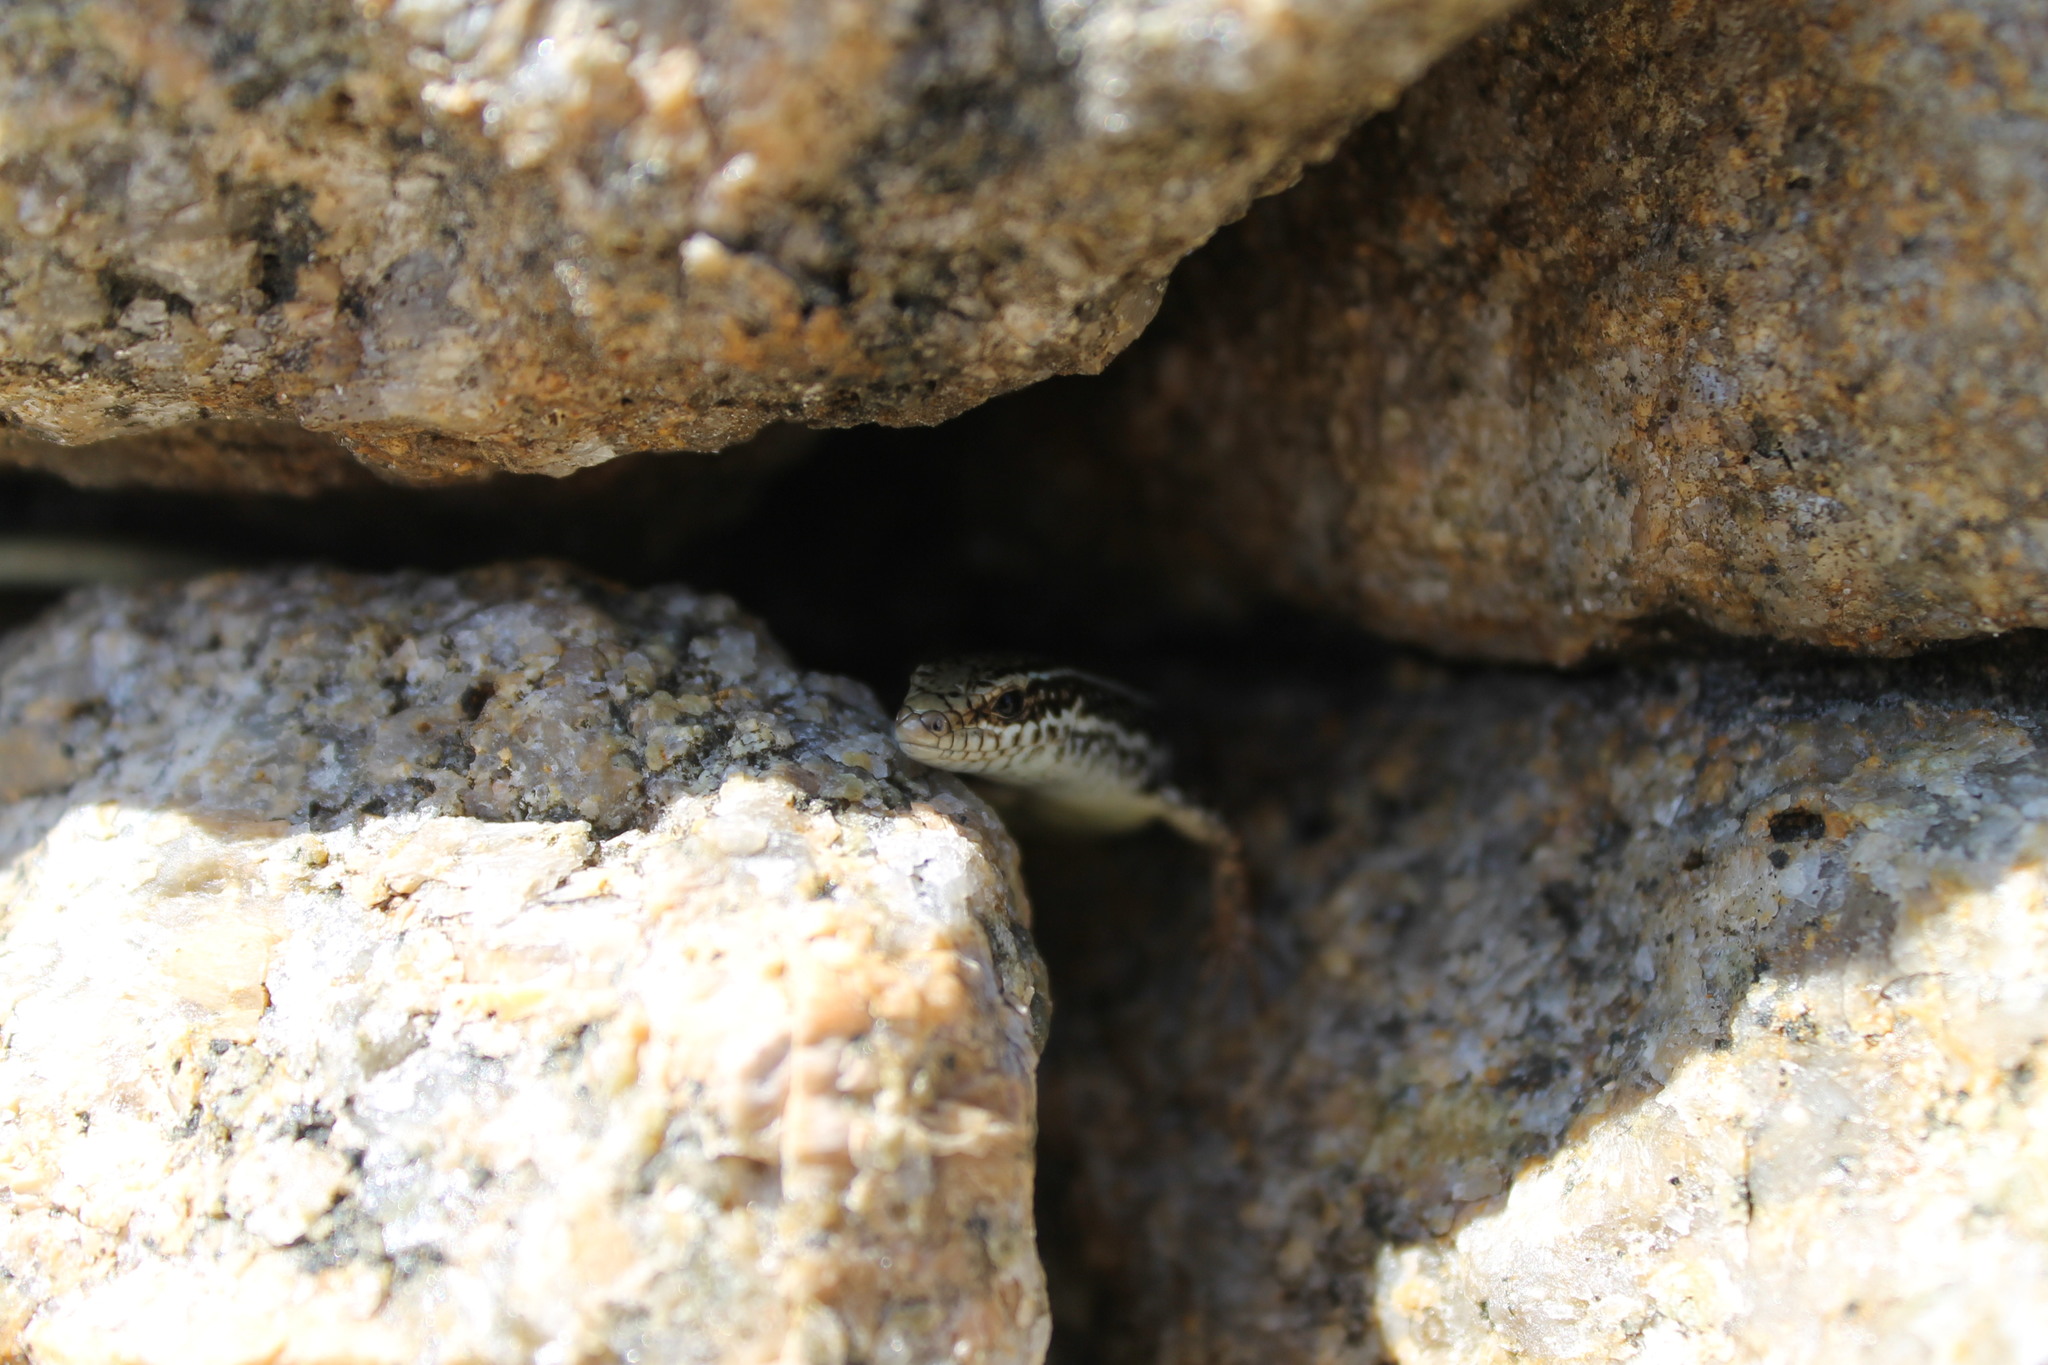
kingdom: Animalia
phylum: Chordata
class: Squamata
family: Scincidae
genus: Ctenotus
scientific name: Ctenotus labillardieri
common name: Common south-west ctenotus
